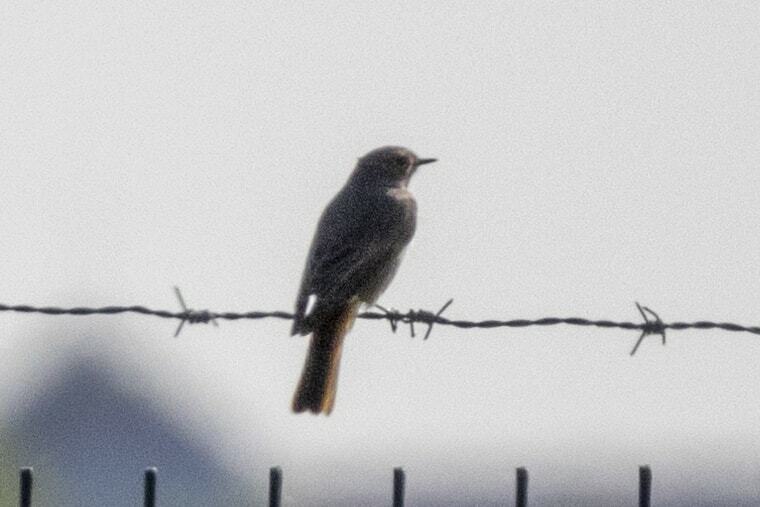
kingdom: Animalia
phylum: Chordata
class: Aves
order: Passeriformes
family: Muscicapidae
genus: Phoenicurus
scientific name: Phoenicurus ochruros
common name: Black redstart
